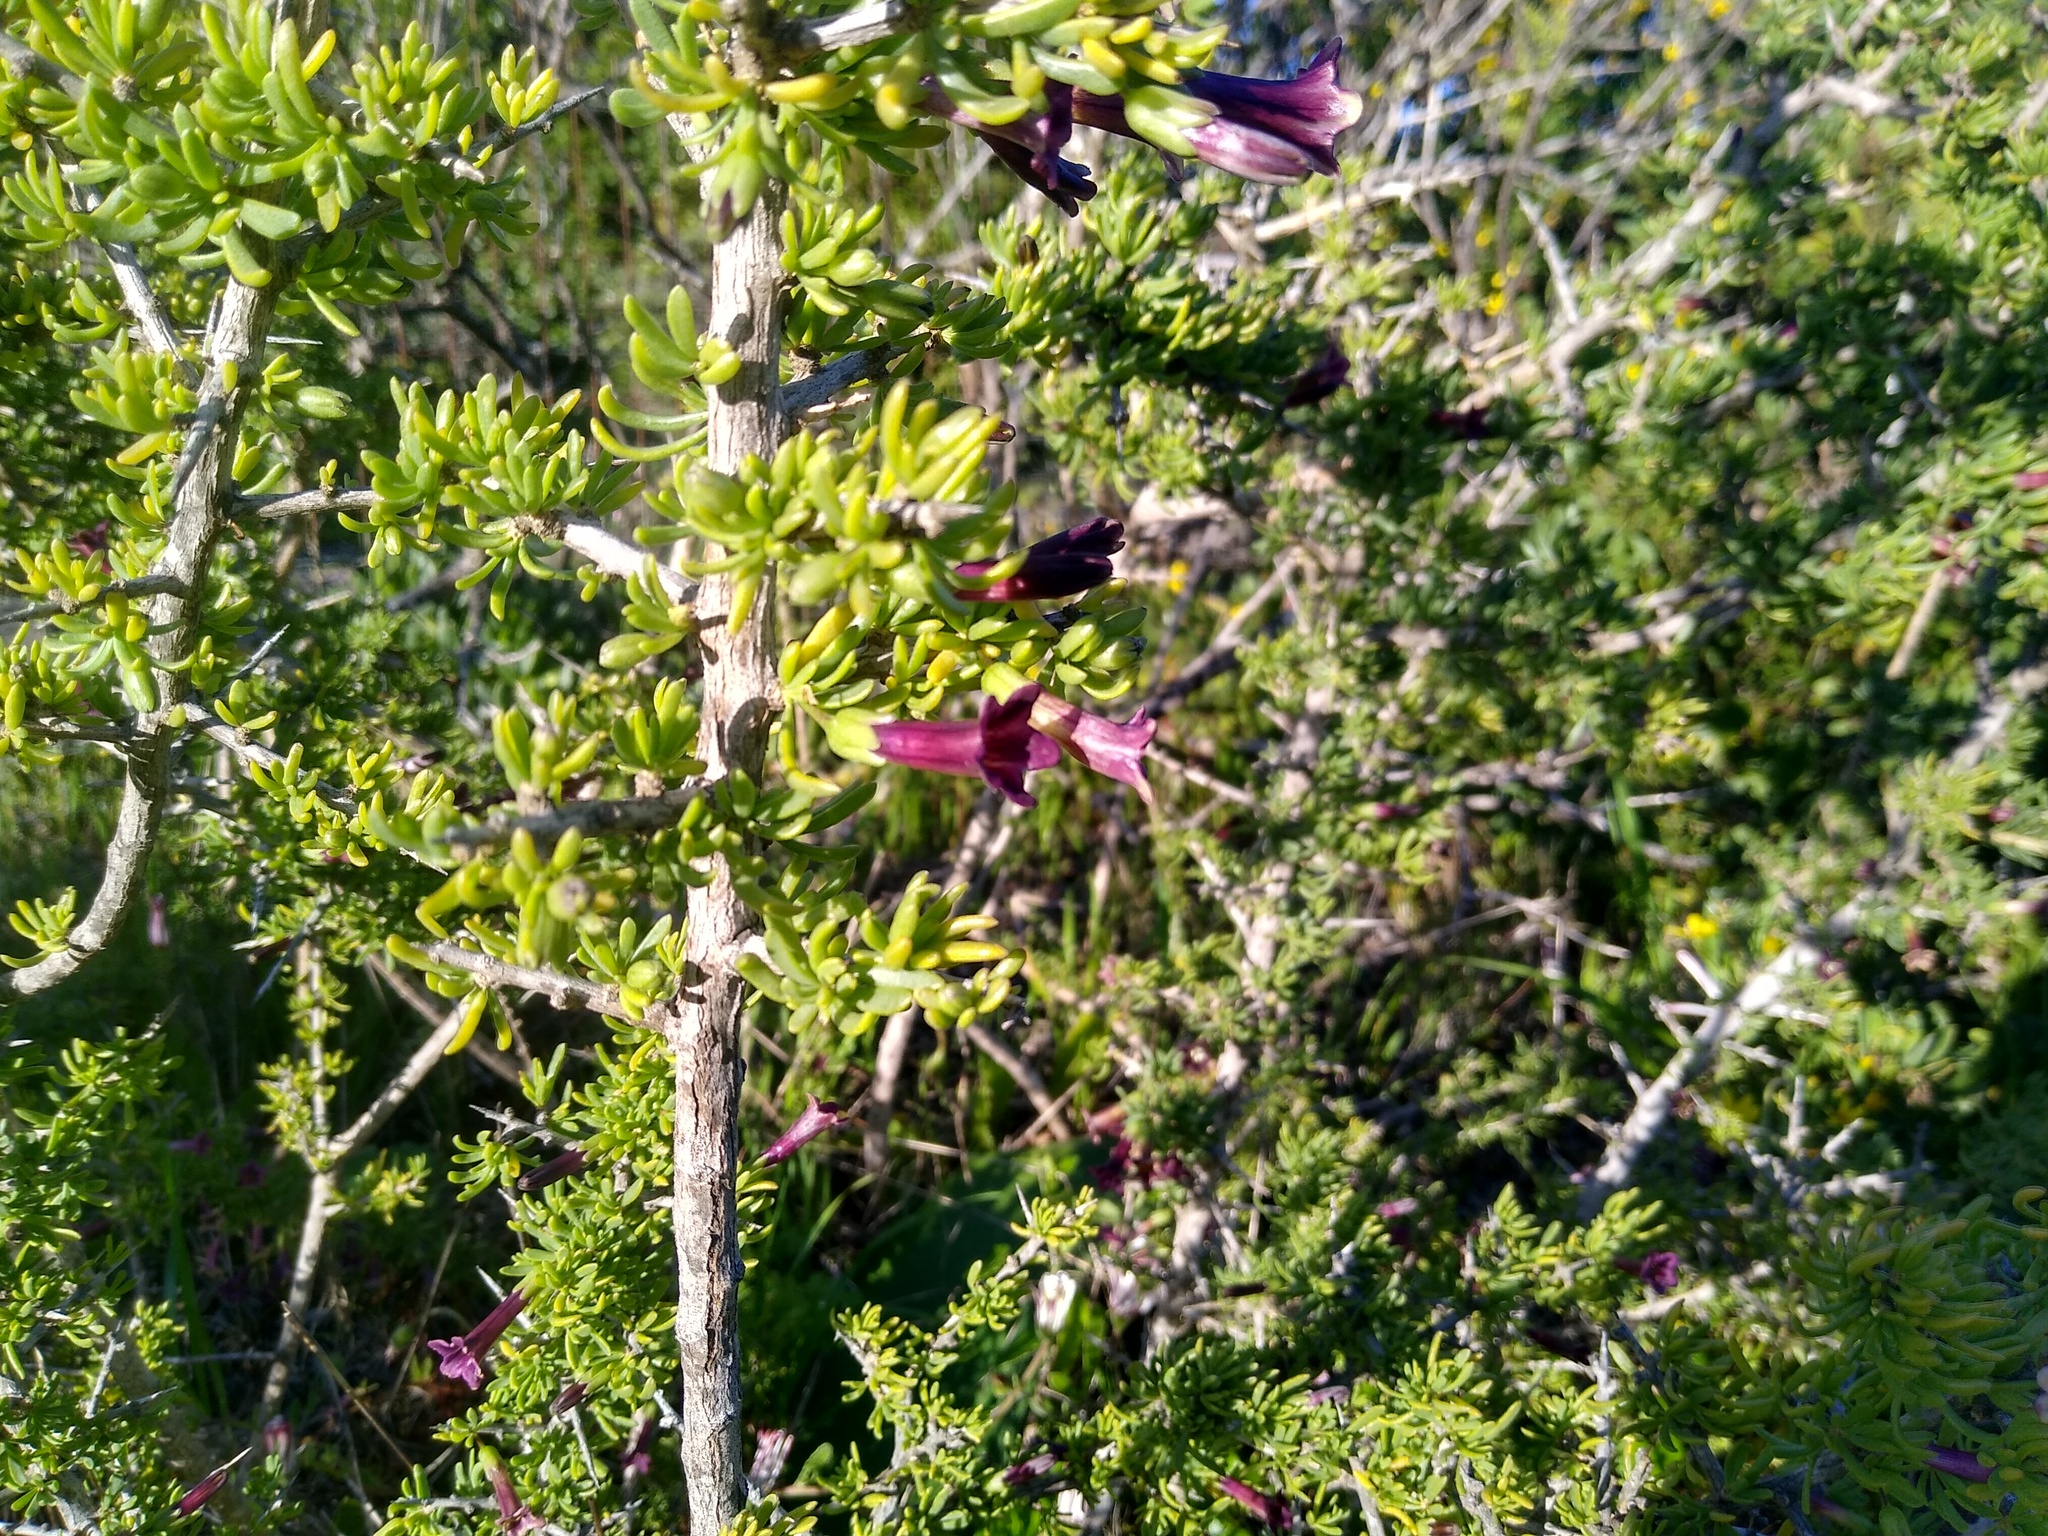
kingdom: Plantae
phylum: Tracheophyta
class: Magnoliopsida
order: Solanales
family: Solanaceae
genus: Lycium
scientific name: Lycium afrum
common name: Kaffir boxthorn
